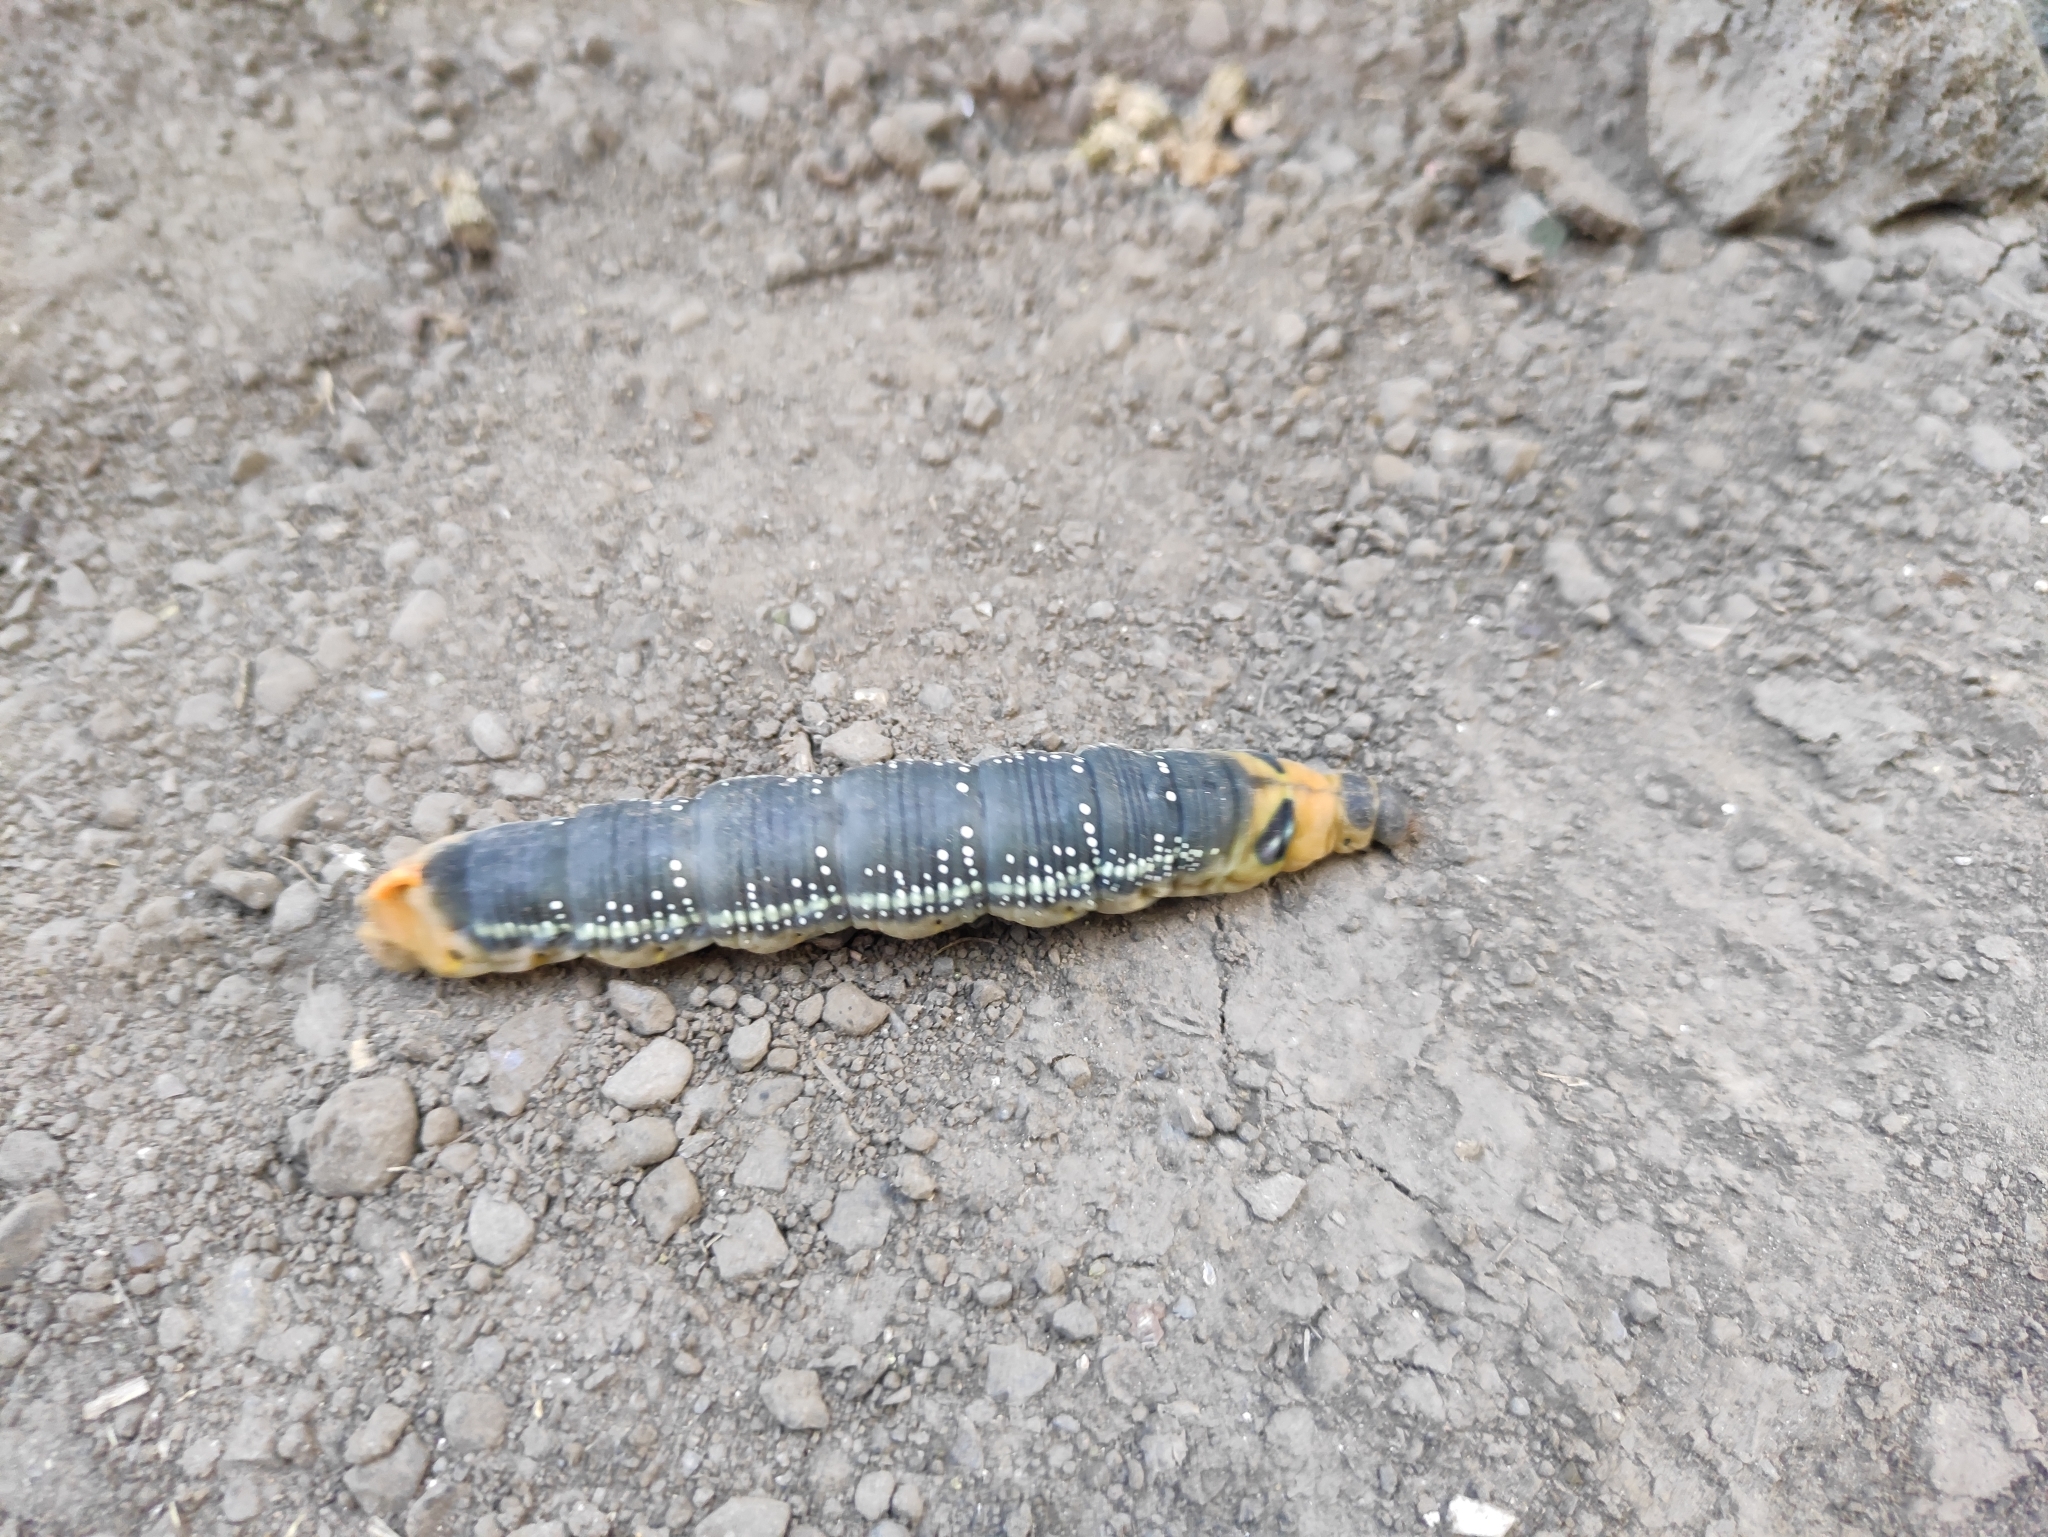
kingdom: Animalia
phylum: Arthropoda
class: Insecta
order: Lepidoptera
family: Sphingidae
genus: Daphnis
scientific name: Daphnis nerii
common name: Oleander hawk-moth
